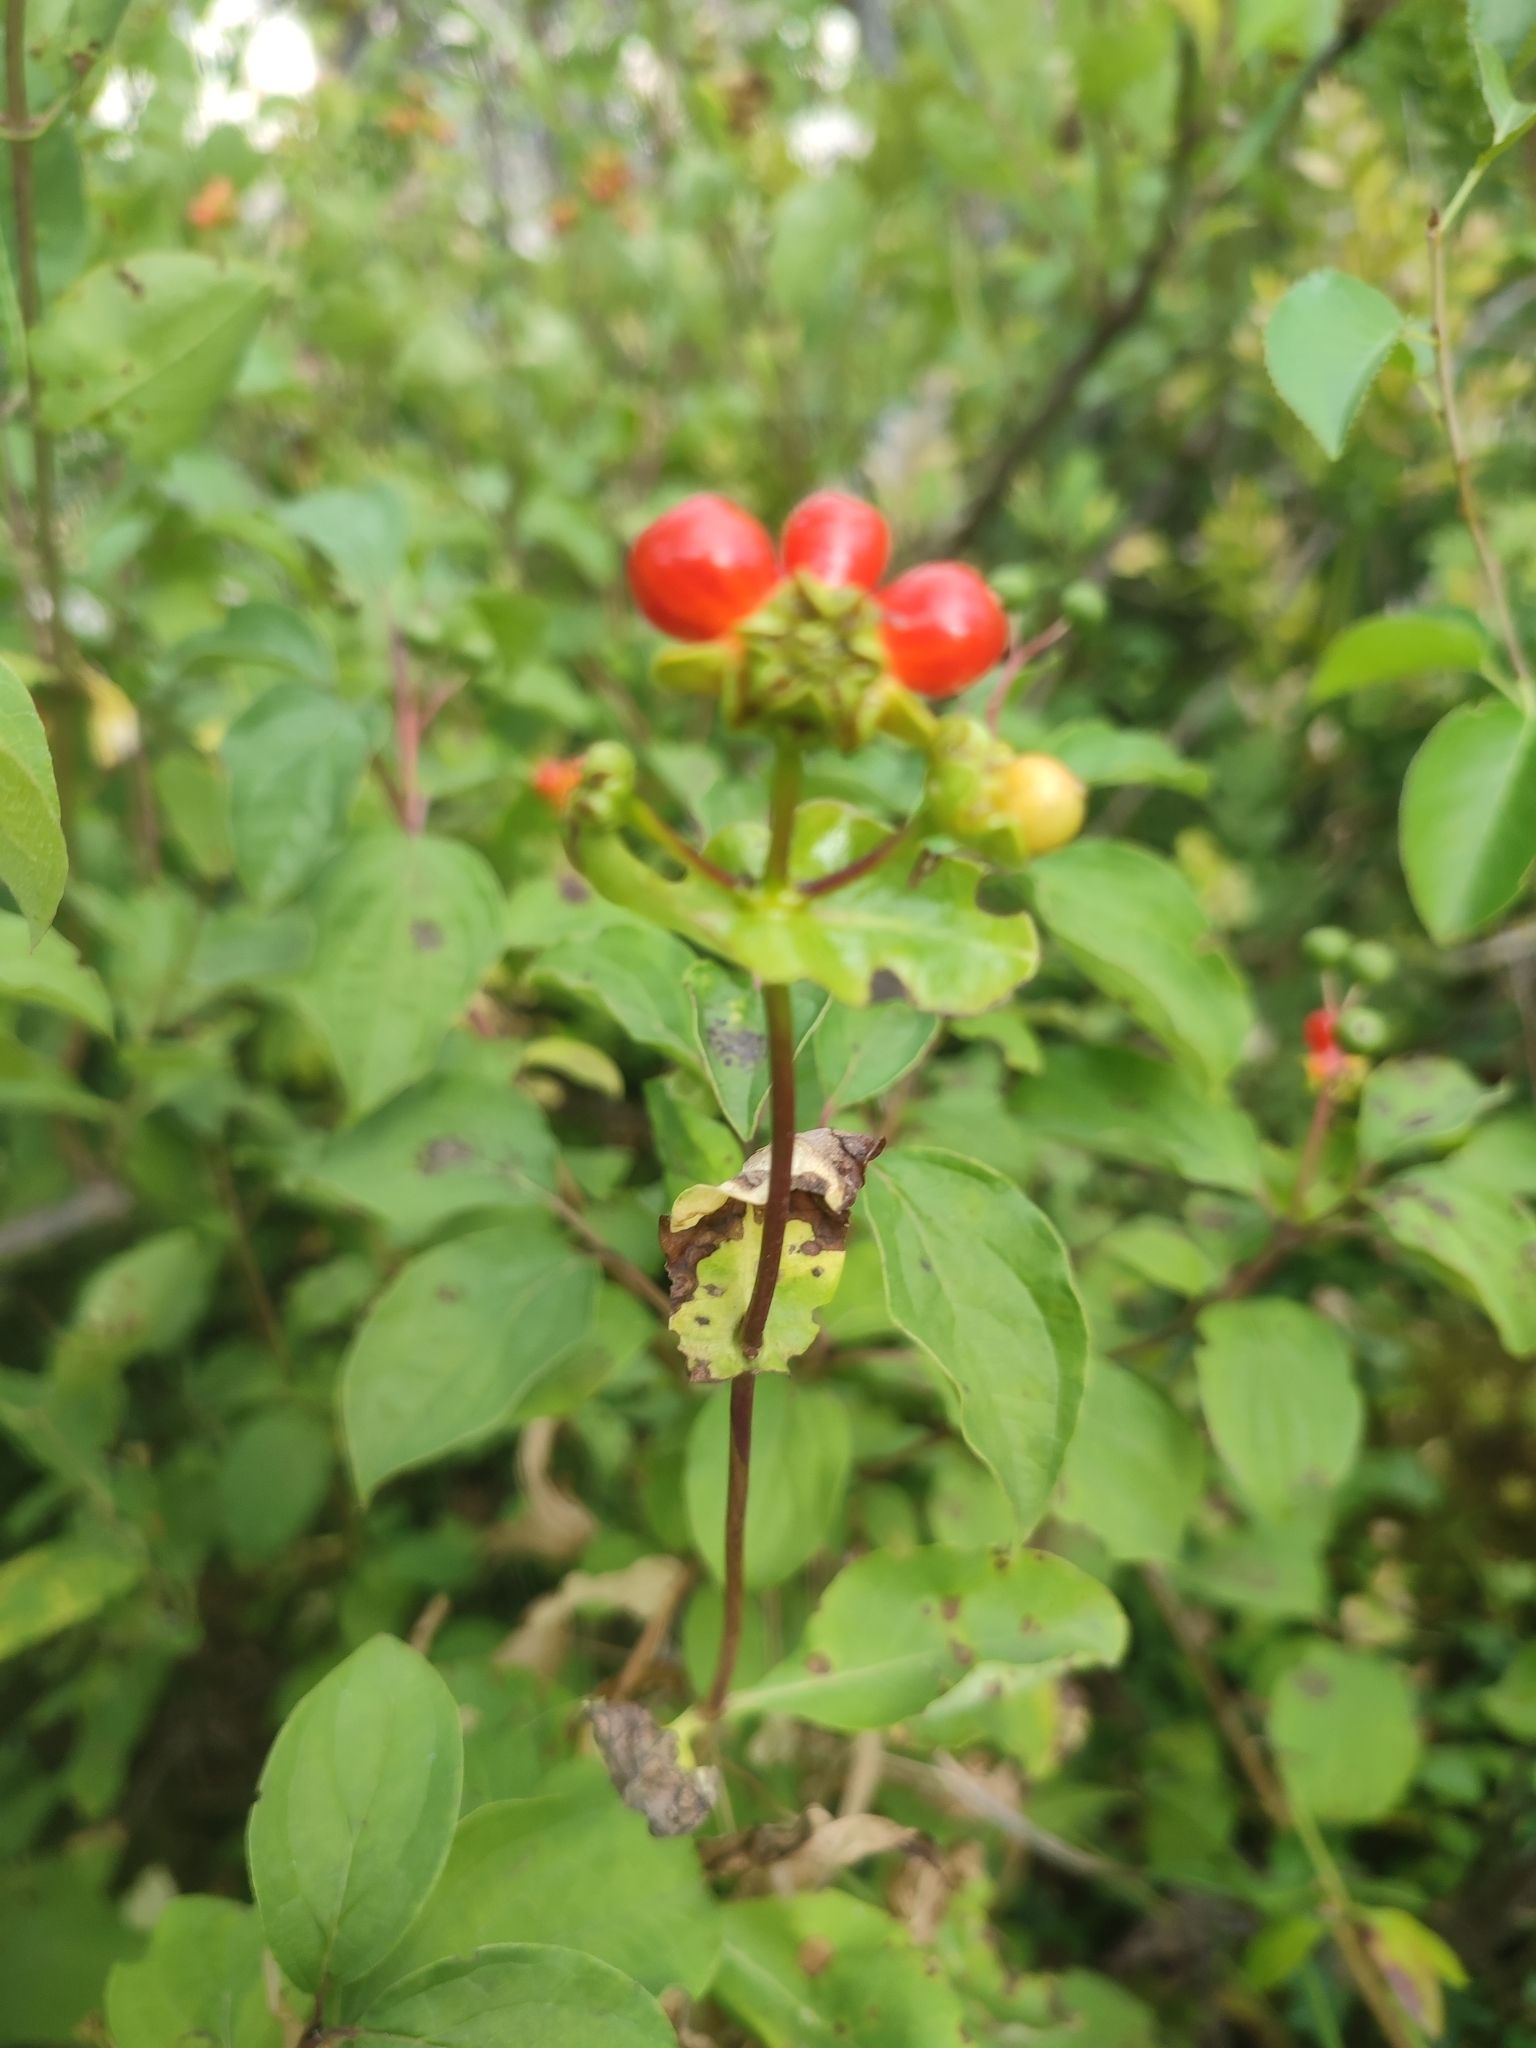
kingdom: Plantae
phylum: Tracheophyta
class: Magnoliopsida
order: Dipsacales
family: Caprifoliaceae
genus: Lonicera
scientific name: Lonicera etrusca
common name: Etruscan honeysuckle
